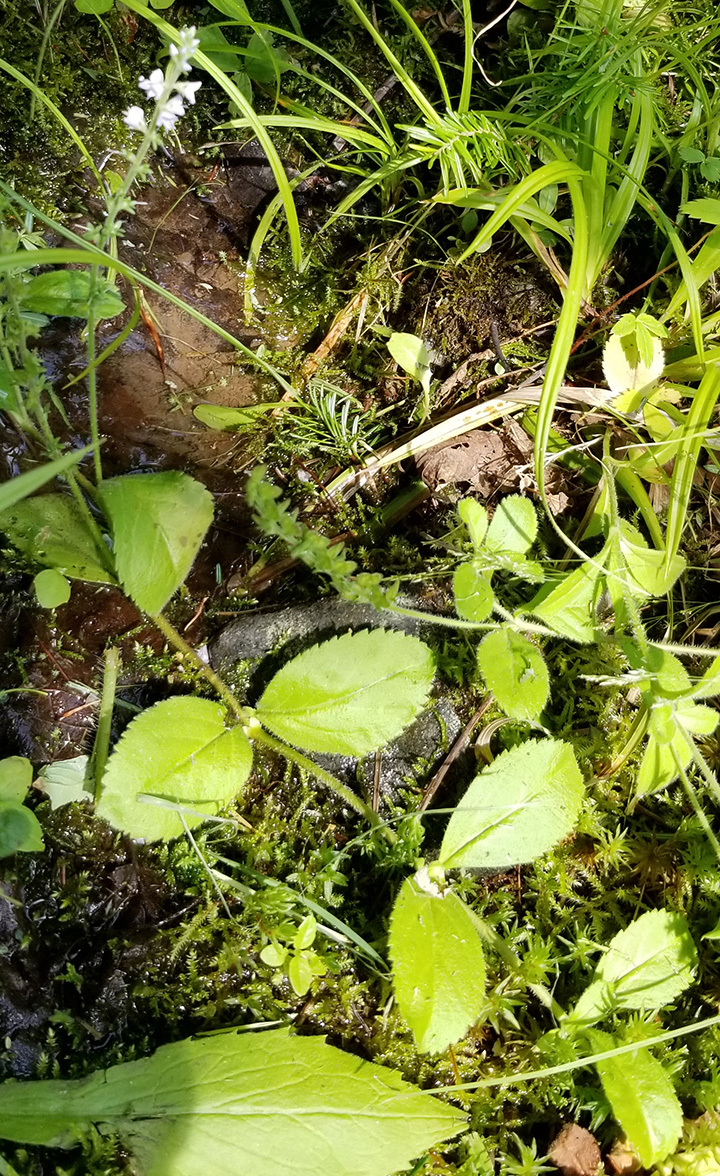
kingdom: Plantae
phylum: Tracheophyta
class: Magnoliopsida
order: Lamiales
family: Plantaginaceae
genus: Veronica
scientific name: Veronica officinalis
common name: Common speedwell
